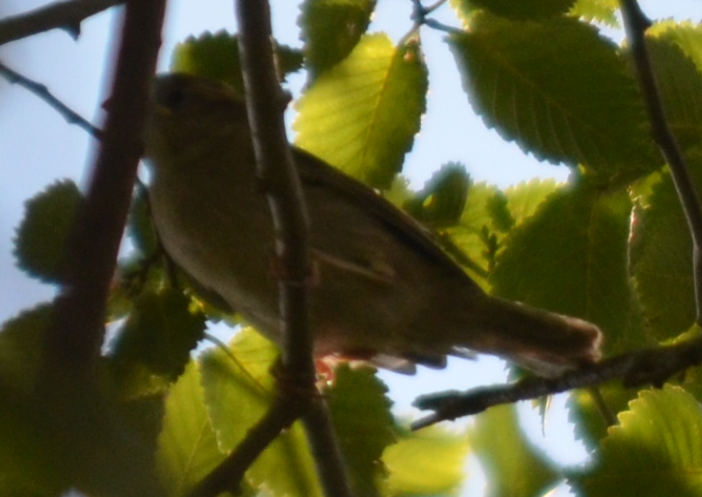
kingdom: Animalia
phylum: Chordata
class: Aves
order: Passeriformes
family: Passeridae
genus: Passer
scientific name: Passer domesticus
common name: House sparrow
